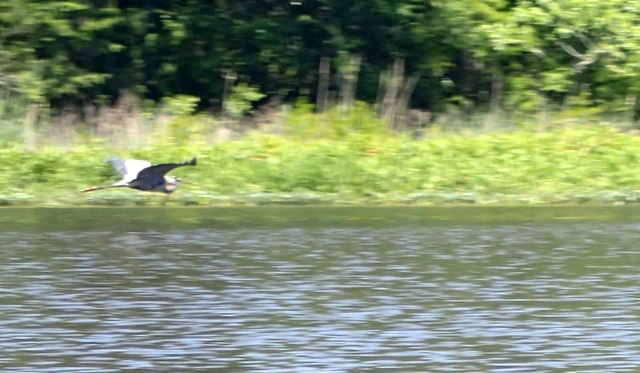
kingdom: Animalia
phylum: Chordata
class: Aves
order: Pelecaniformes
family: Ardeidae
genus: Ardea
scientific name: Ardea herodias
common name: Great blue heron
